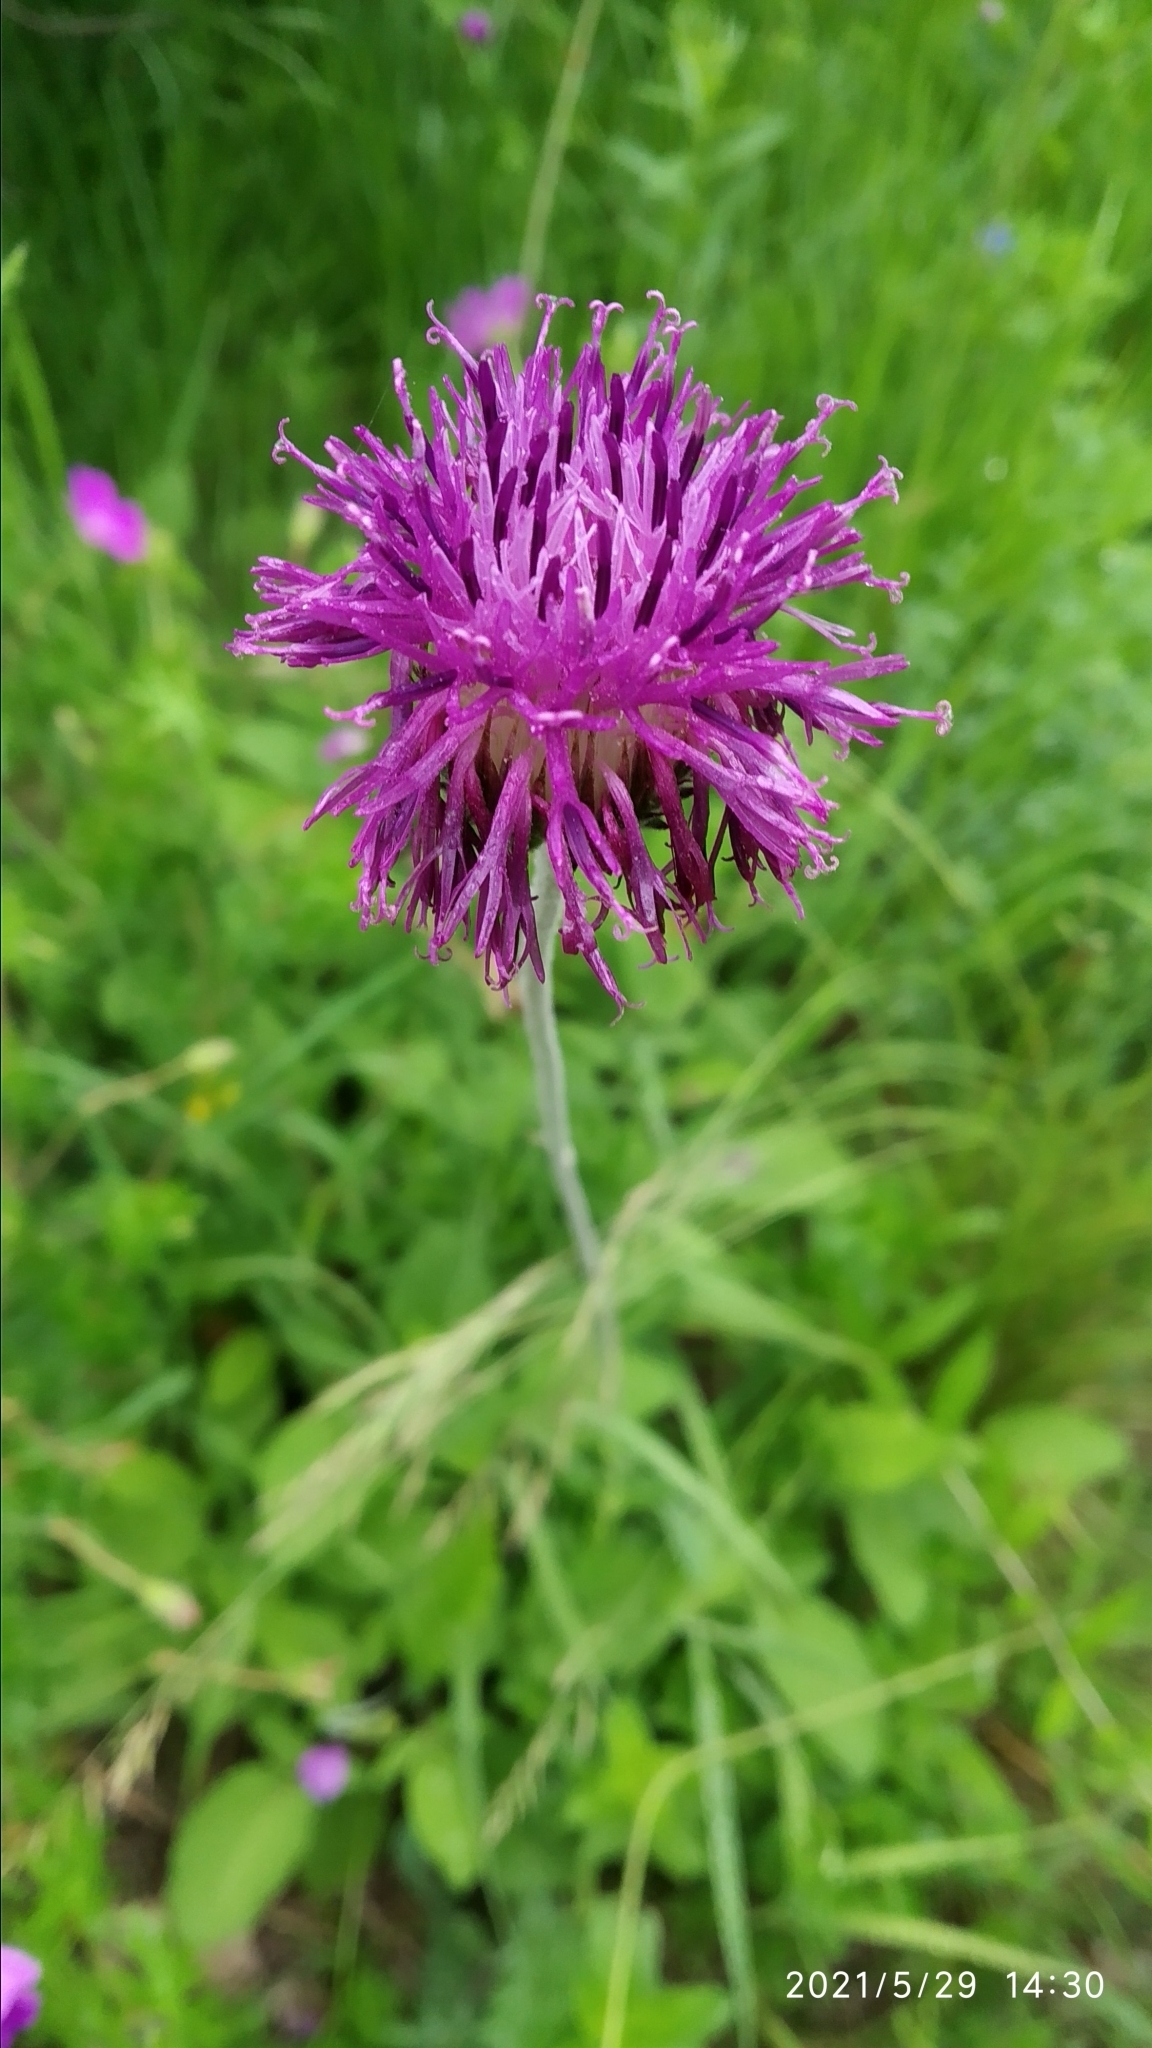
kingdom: Plantae
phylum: Tracheophyta
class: Magnoliopsida
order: Asterales
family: Asteraceae
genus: Jurinea
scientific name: Jurinea arachnoidea
